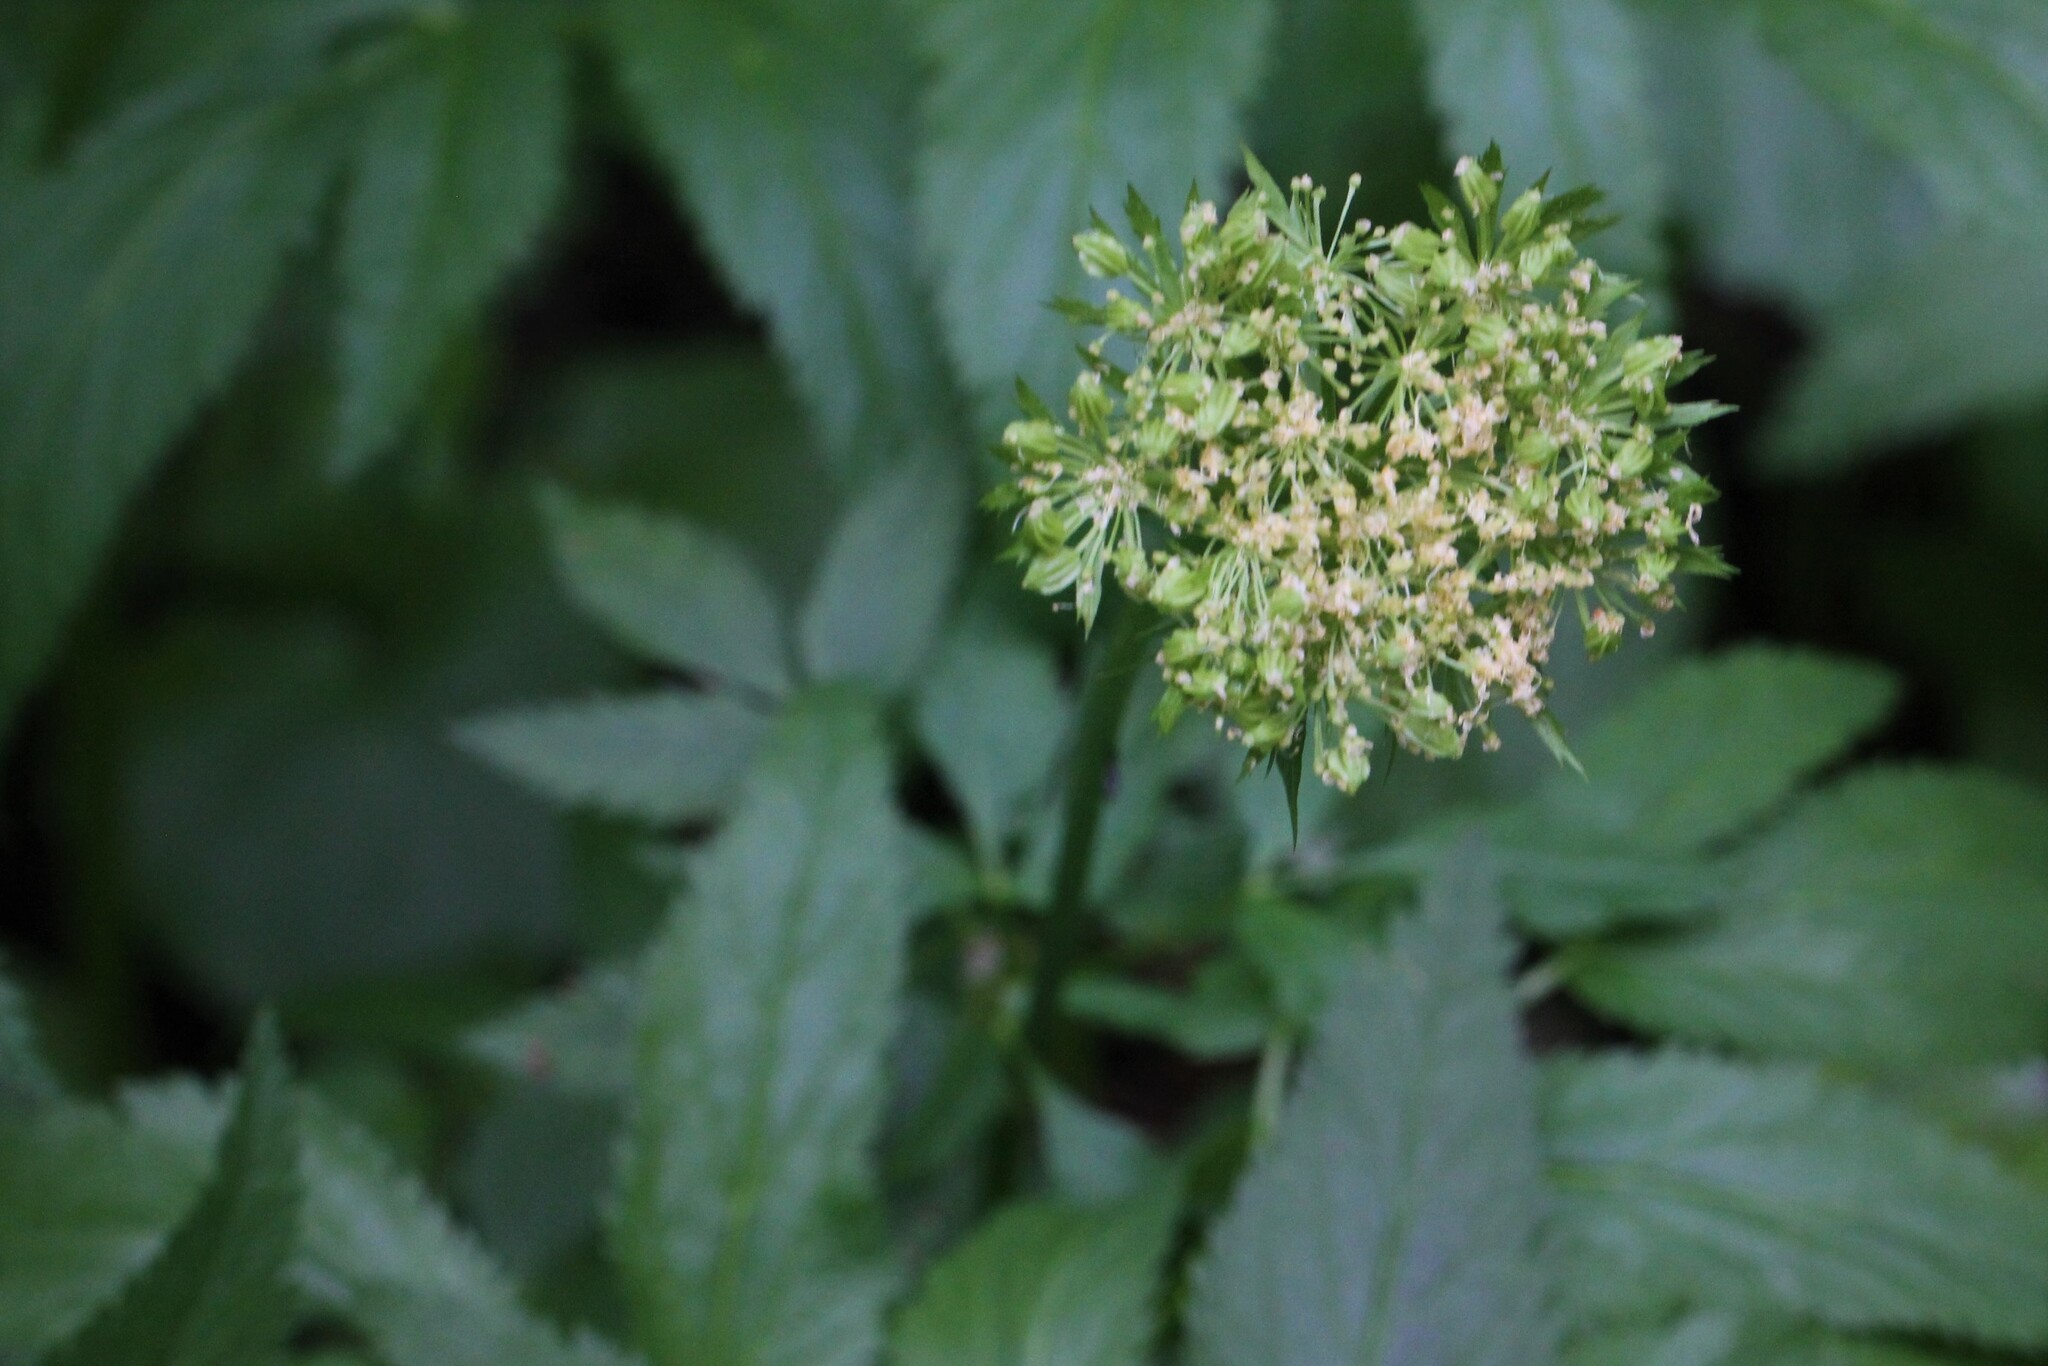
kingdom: Plantae
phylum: Tracheophyta
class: Magnoliopsida
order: Apiales
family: Apiaceae
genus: Angelica
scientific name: Angelica dawsonii
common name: Dawson's angelica
